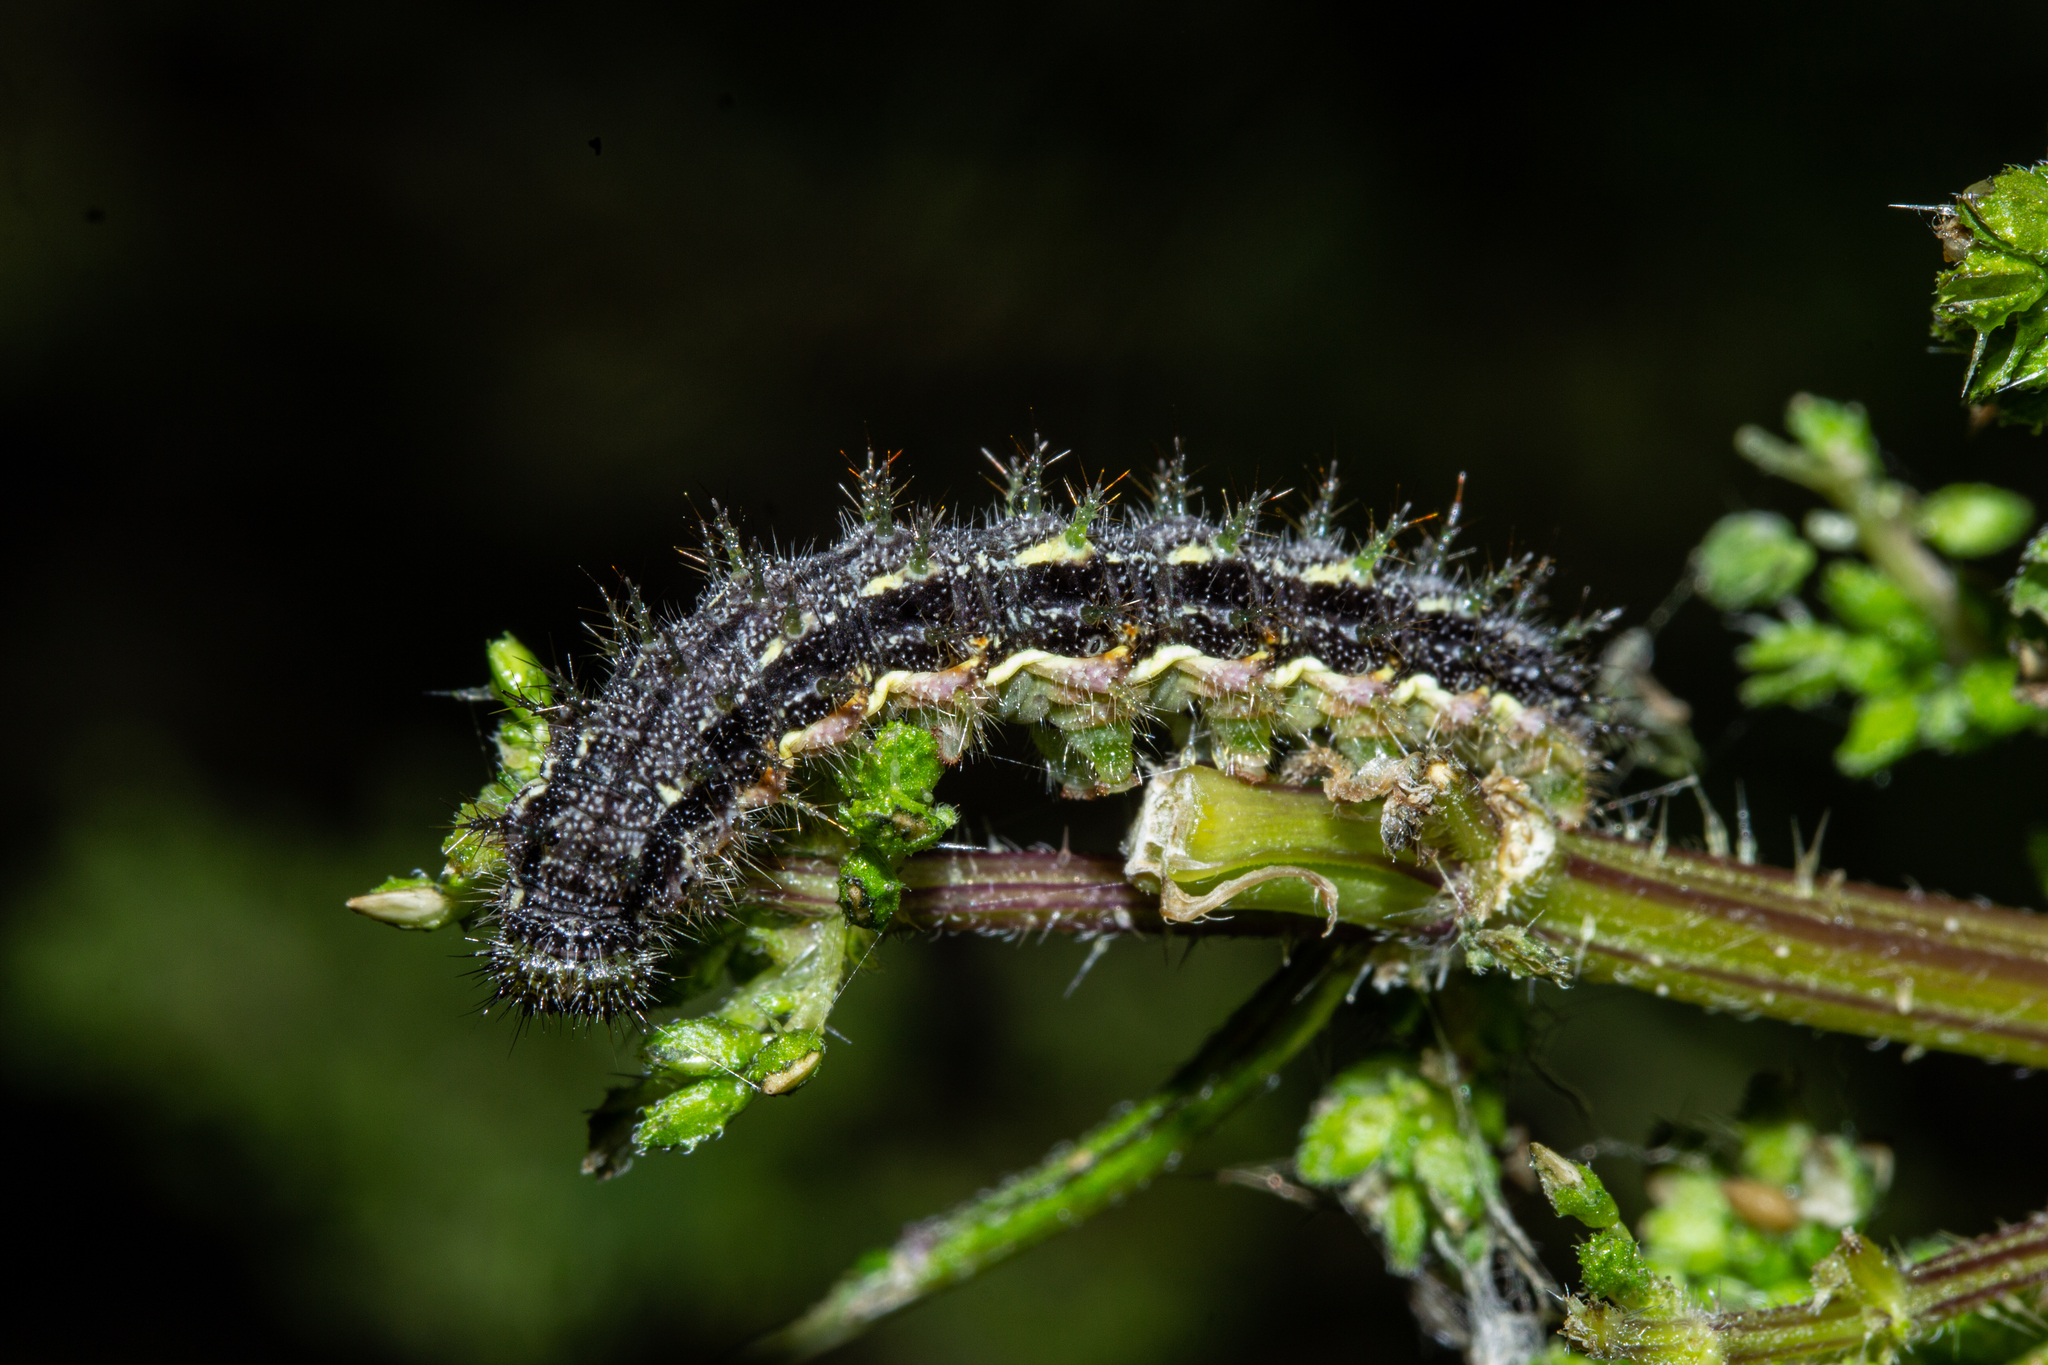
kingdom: Animalia
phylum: Arthropoda
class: Insecta
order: Lepidoptera
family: Nymphalidae
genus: Vanessa
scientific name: Vanessa itea
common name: Yellow admiral
